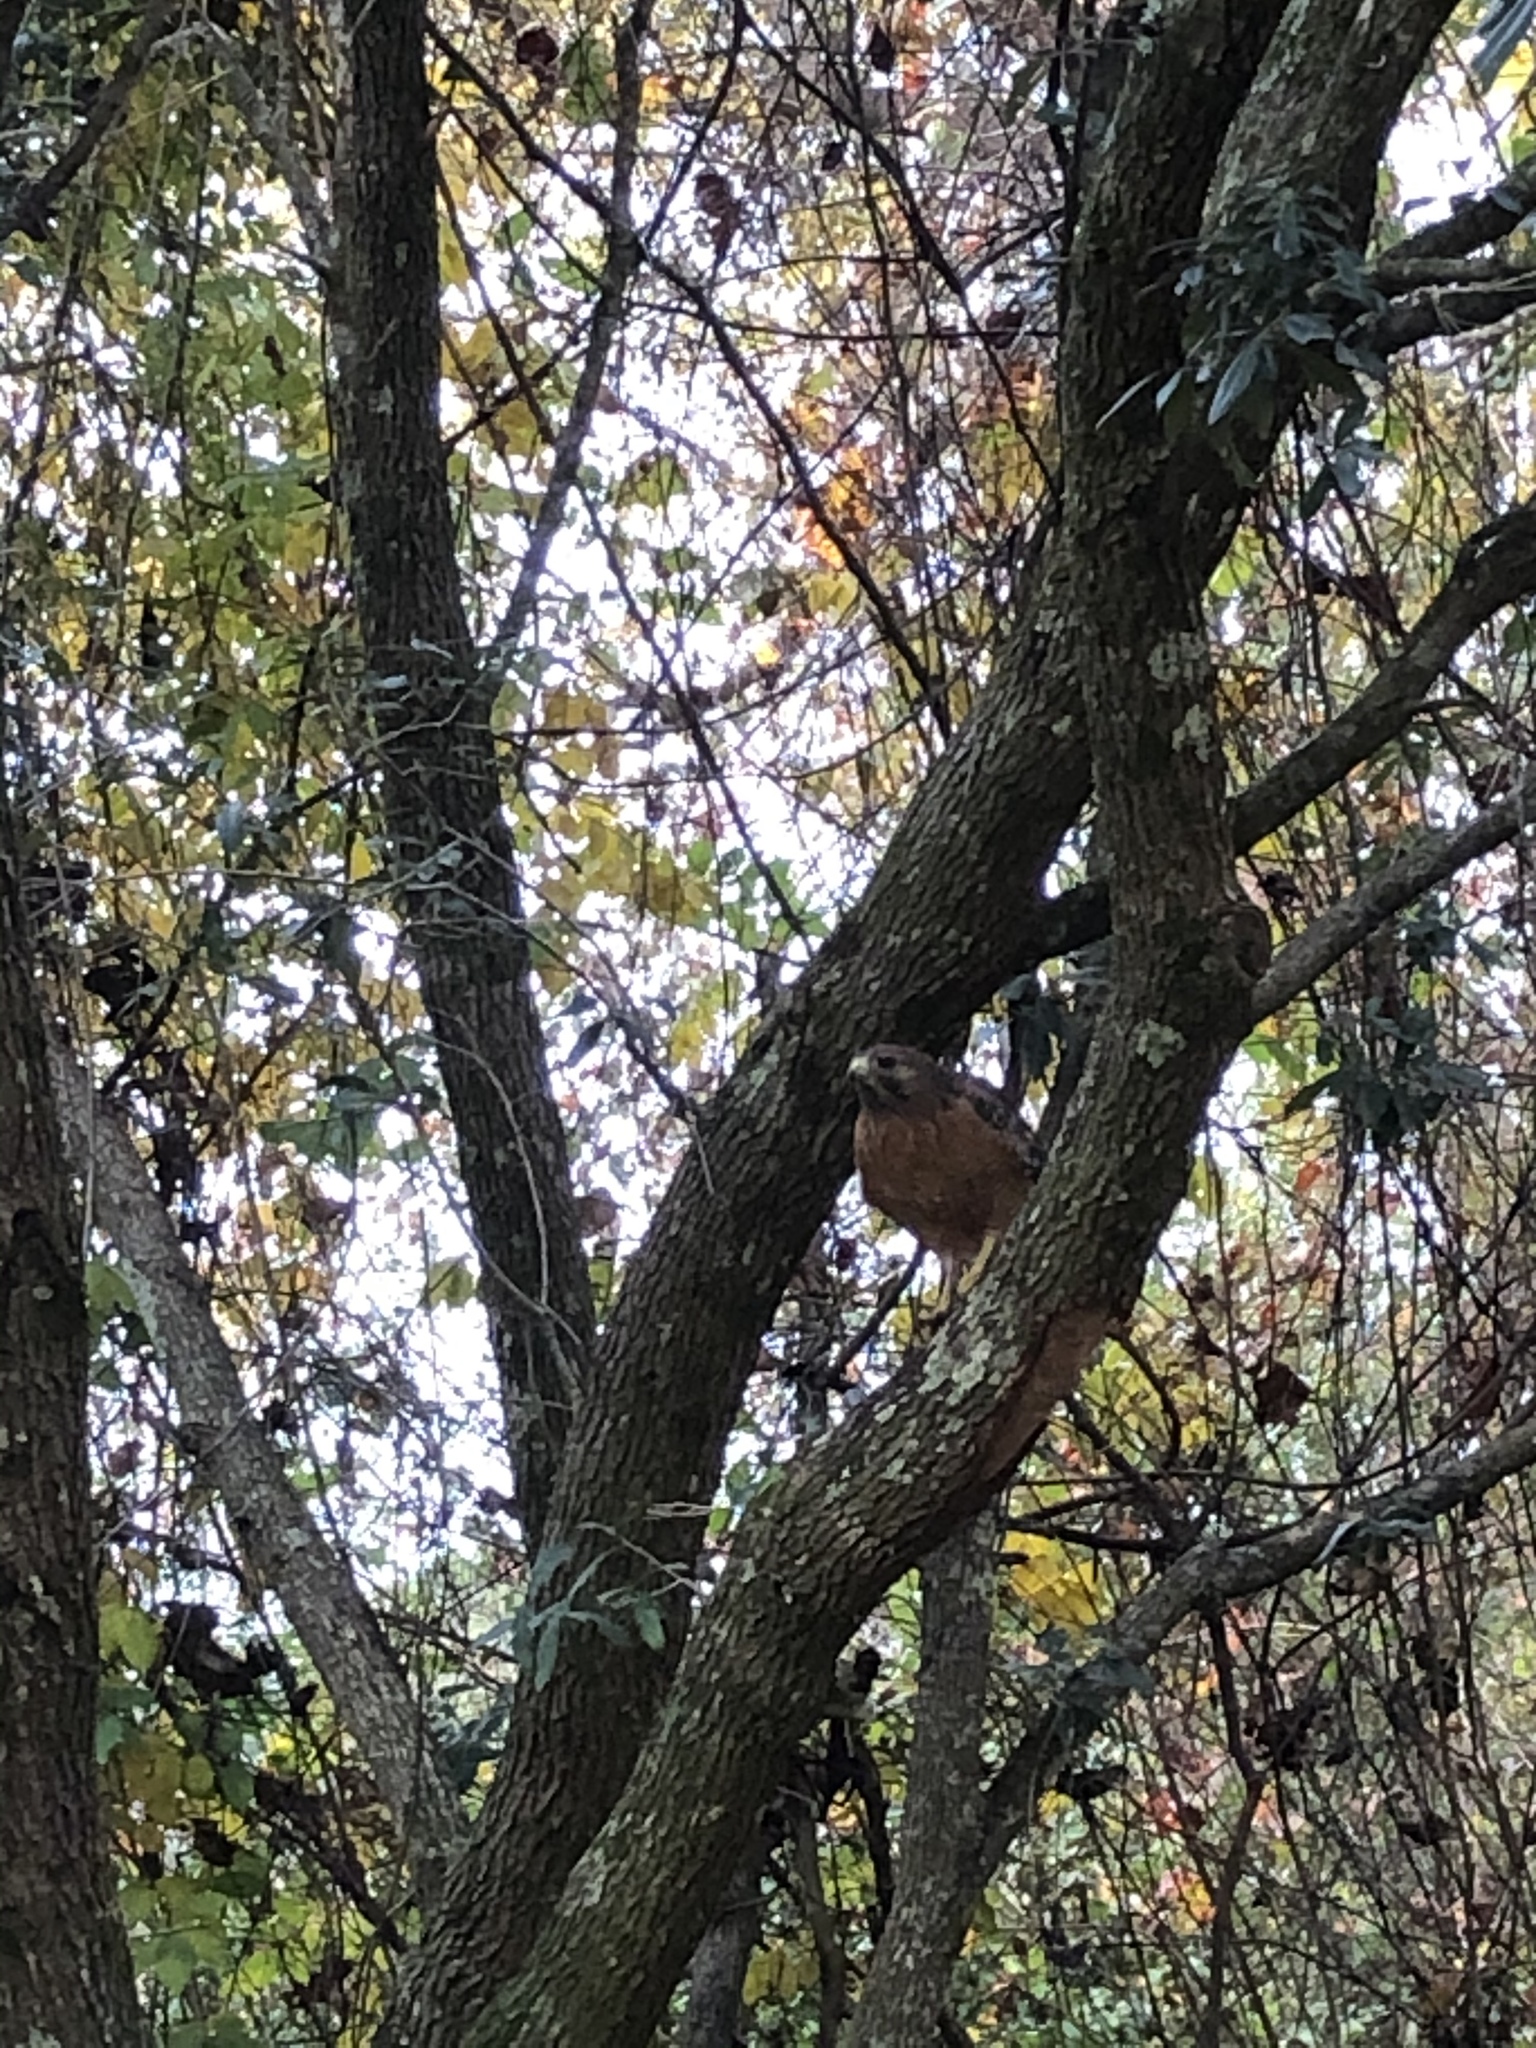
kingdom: Animalia
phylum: Chordata
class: Aves
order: Accipitriformes
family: Accipitridae
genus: Buteo
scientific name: Buteo lineatus
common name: Red-shouldered hawk
